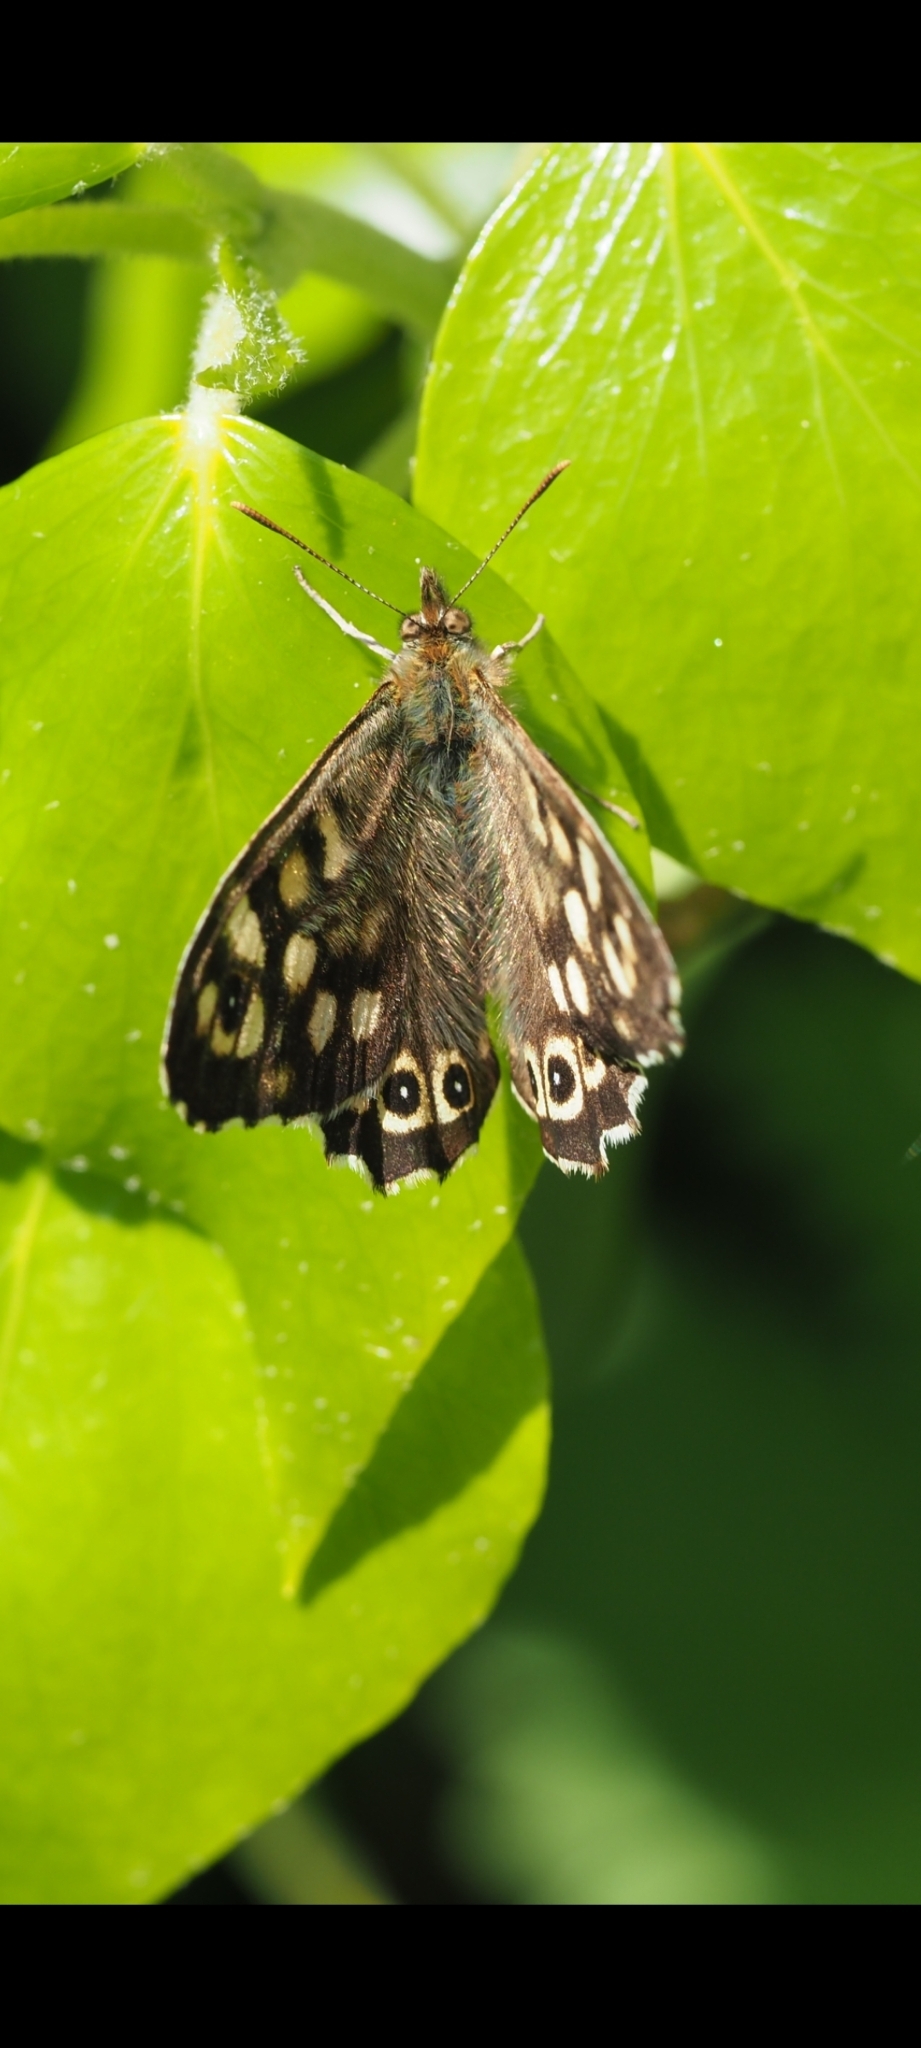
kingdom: Animalia
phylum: Arthropoda
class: Insecta
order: Lepidoptera
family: Nymphalidae
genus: Pararge
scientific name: Pararge aegeria
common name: Speckled wood
